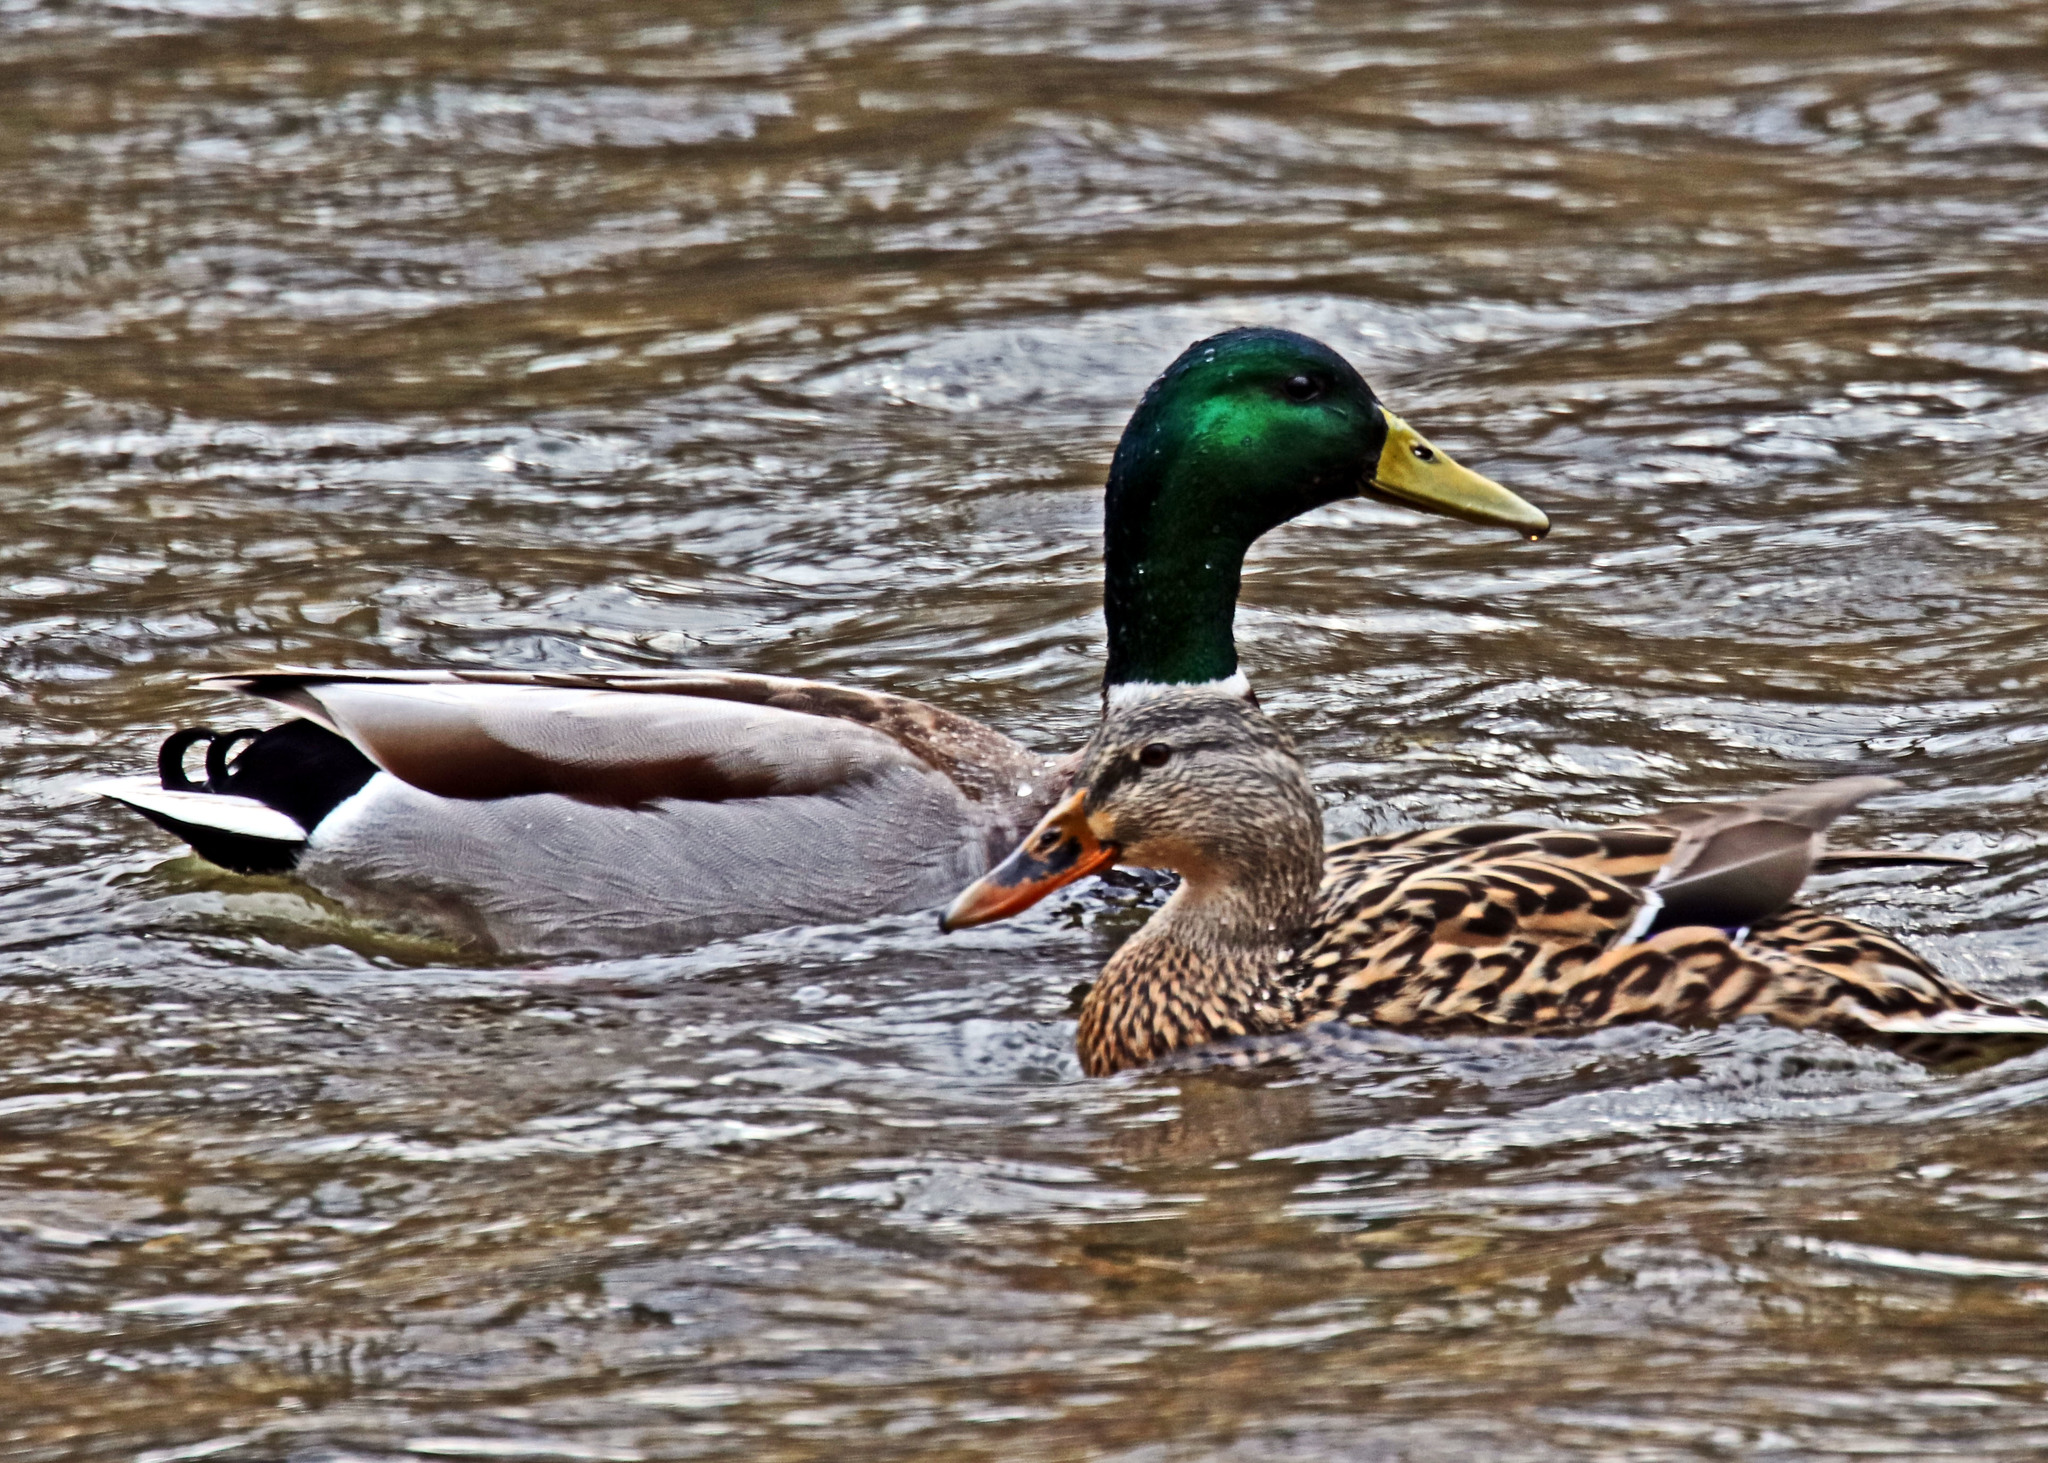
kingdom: Animalia
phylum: Chordata
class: Aves
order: Anseriformes
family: Anatidae
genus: Anas
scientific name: Anas platyrhynchos
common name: Mallard
